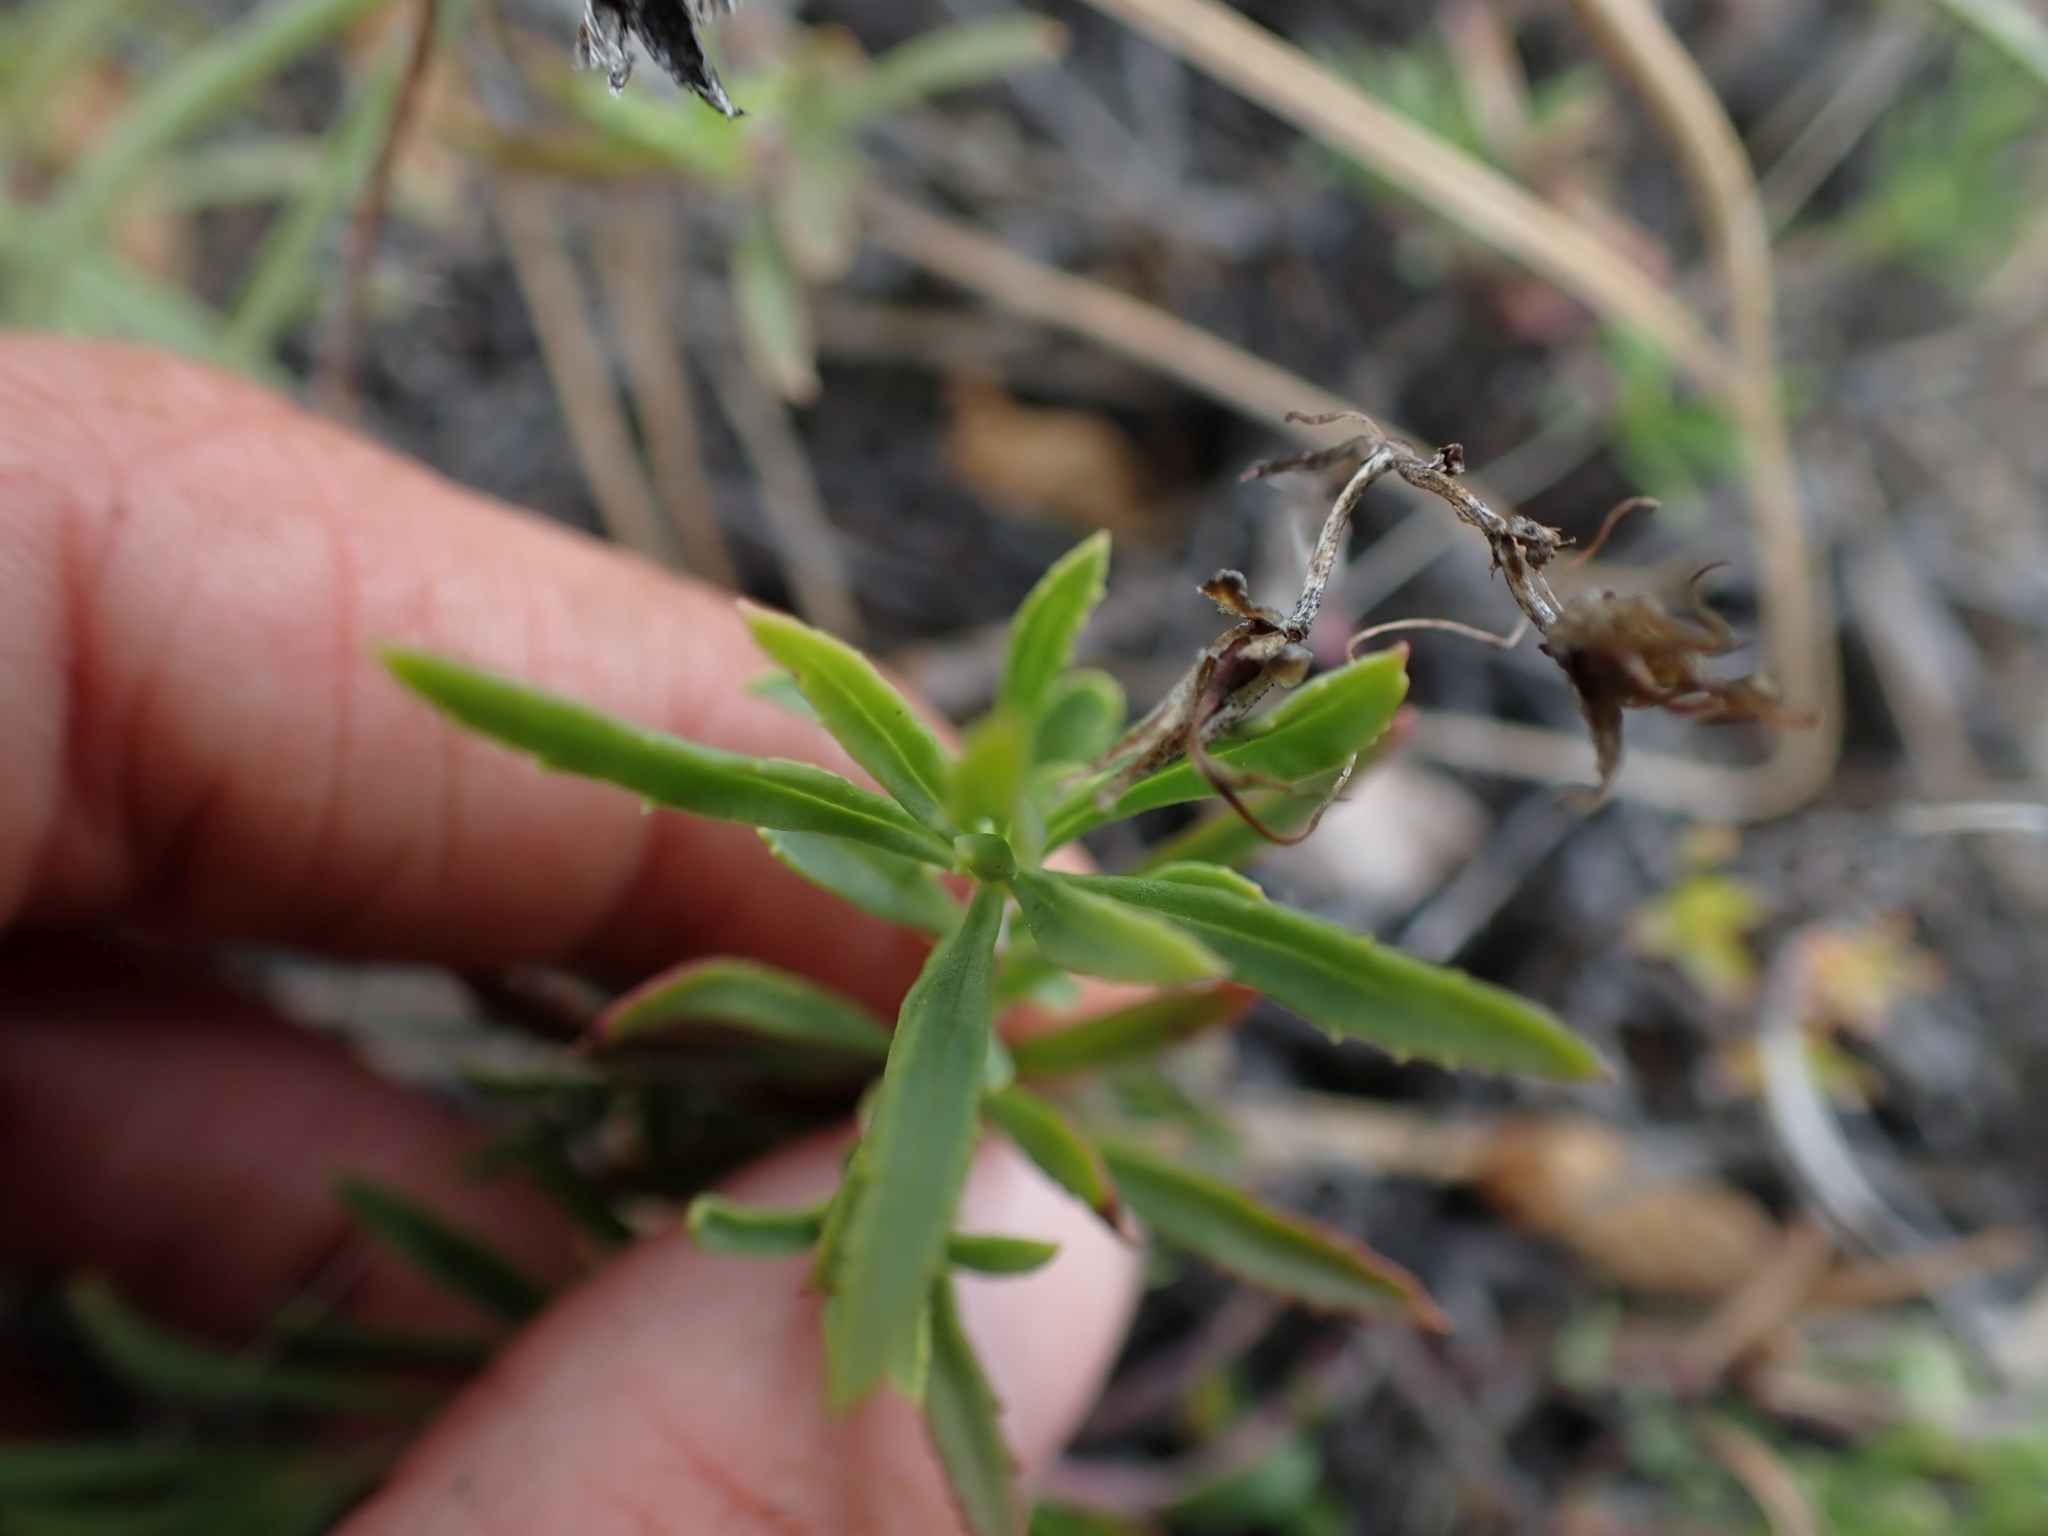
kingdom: Plantae
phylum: Tracheophyta
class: Magnoliopsida
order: Lamiales
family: Plantaginaceae
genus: Penstemon
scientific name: Penstemon fruticosus
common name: Bush penstemon
